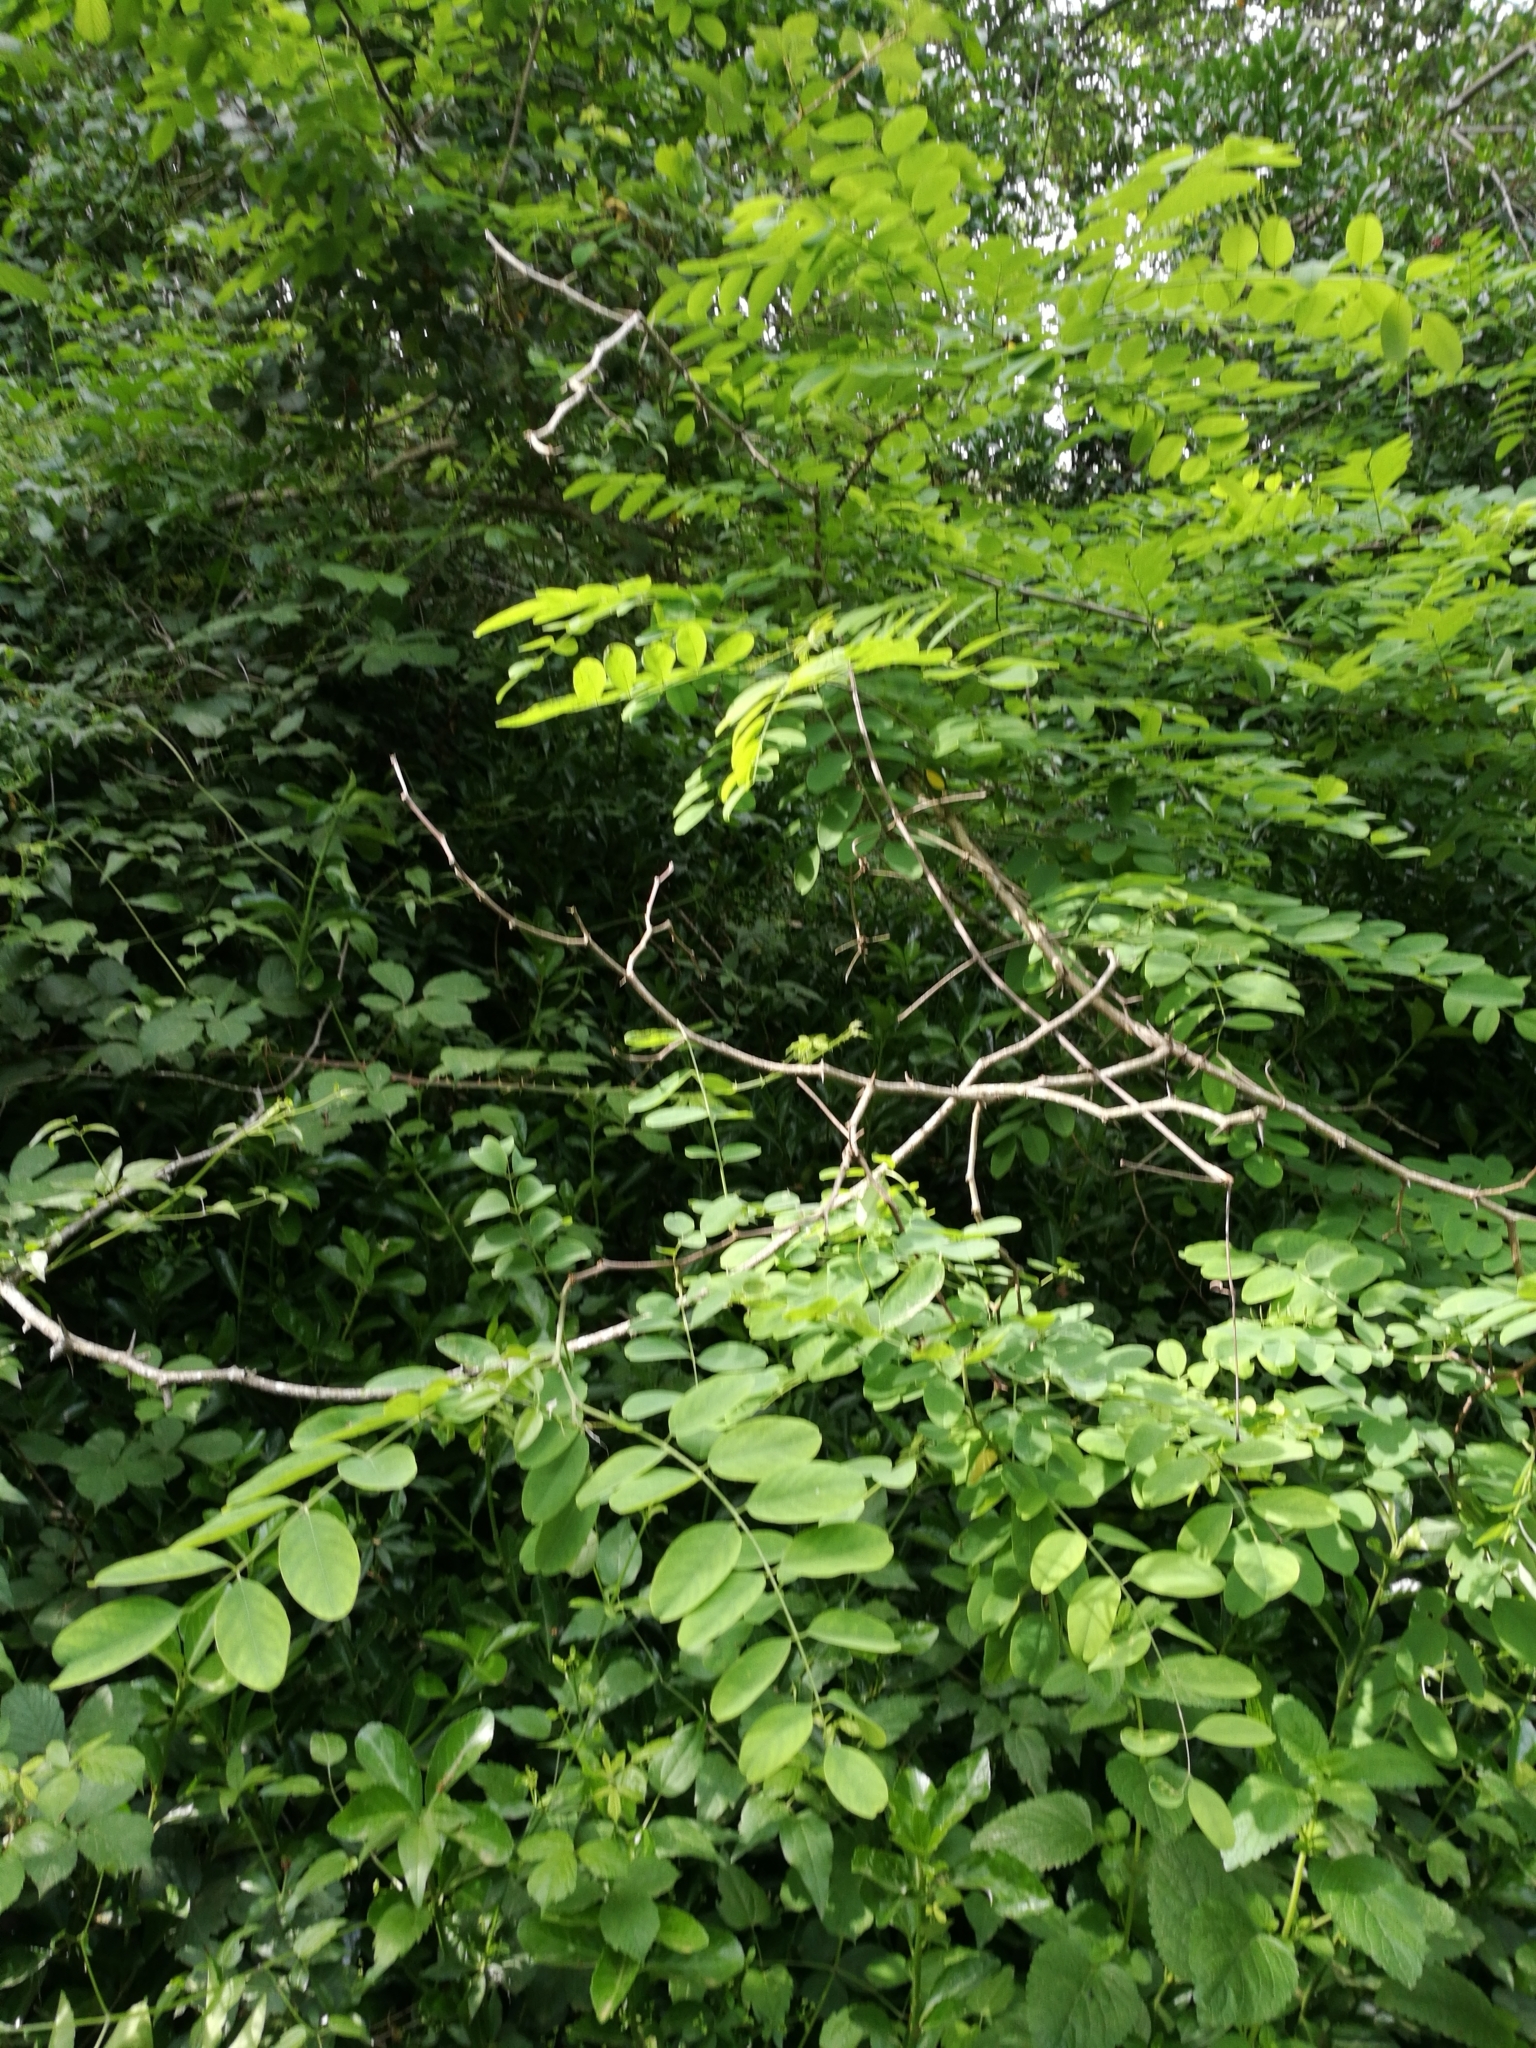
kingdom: Plantae
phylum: Tracheophyta
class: Magnoliopsida
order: Fabales
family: Fabaceae
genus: Robinia
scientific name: Robinia pseudoacacia
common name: Black locust
